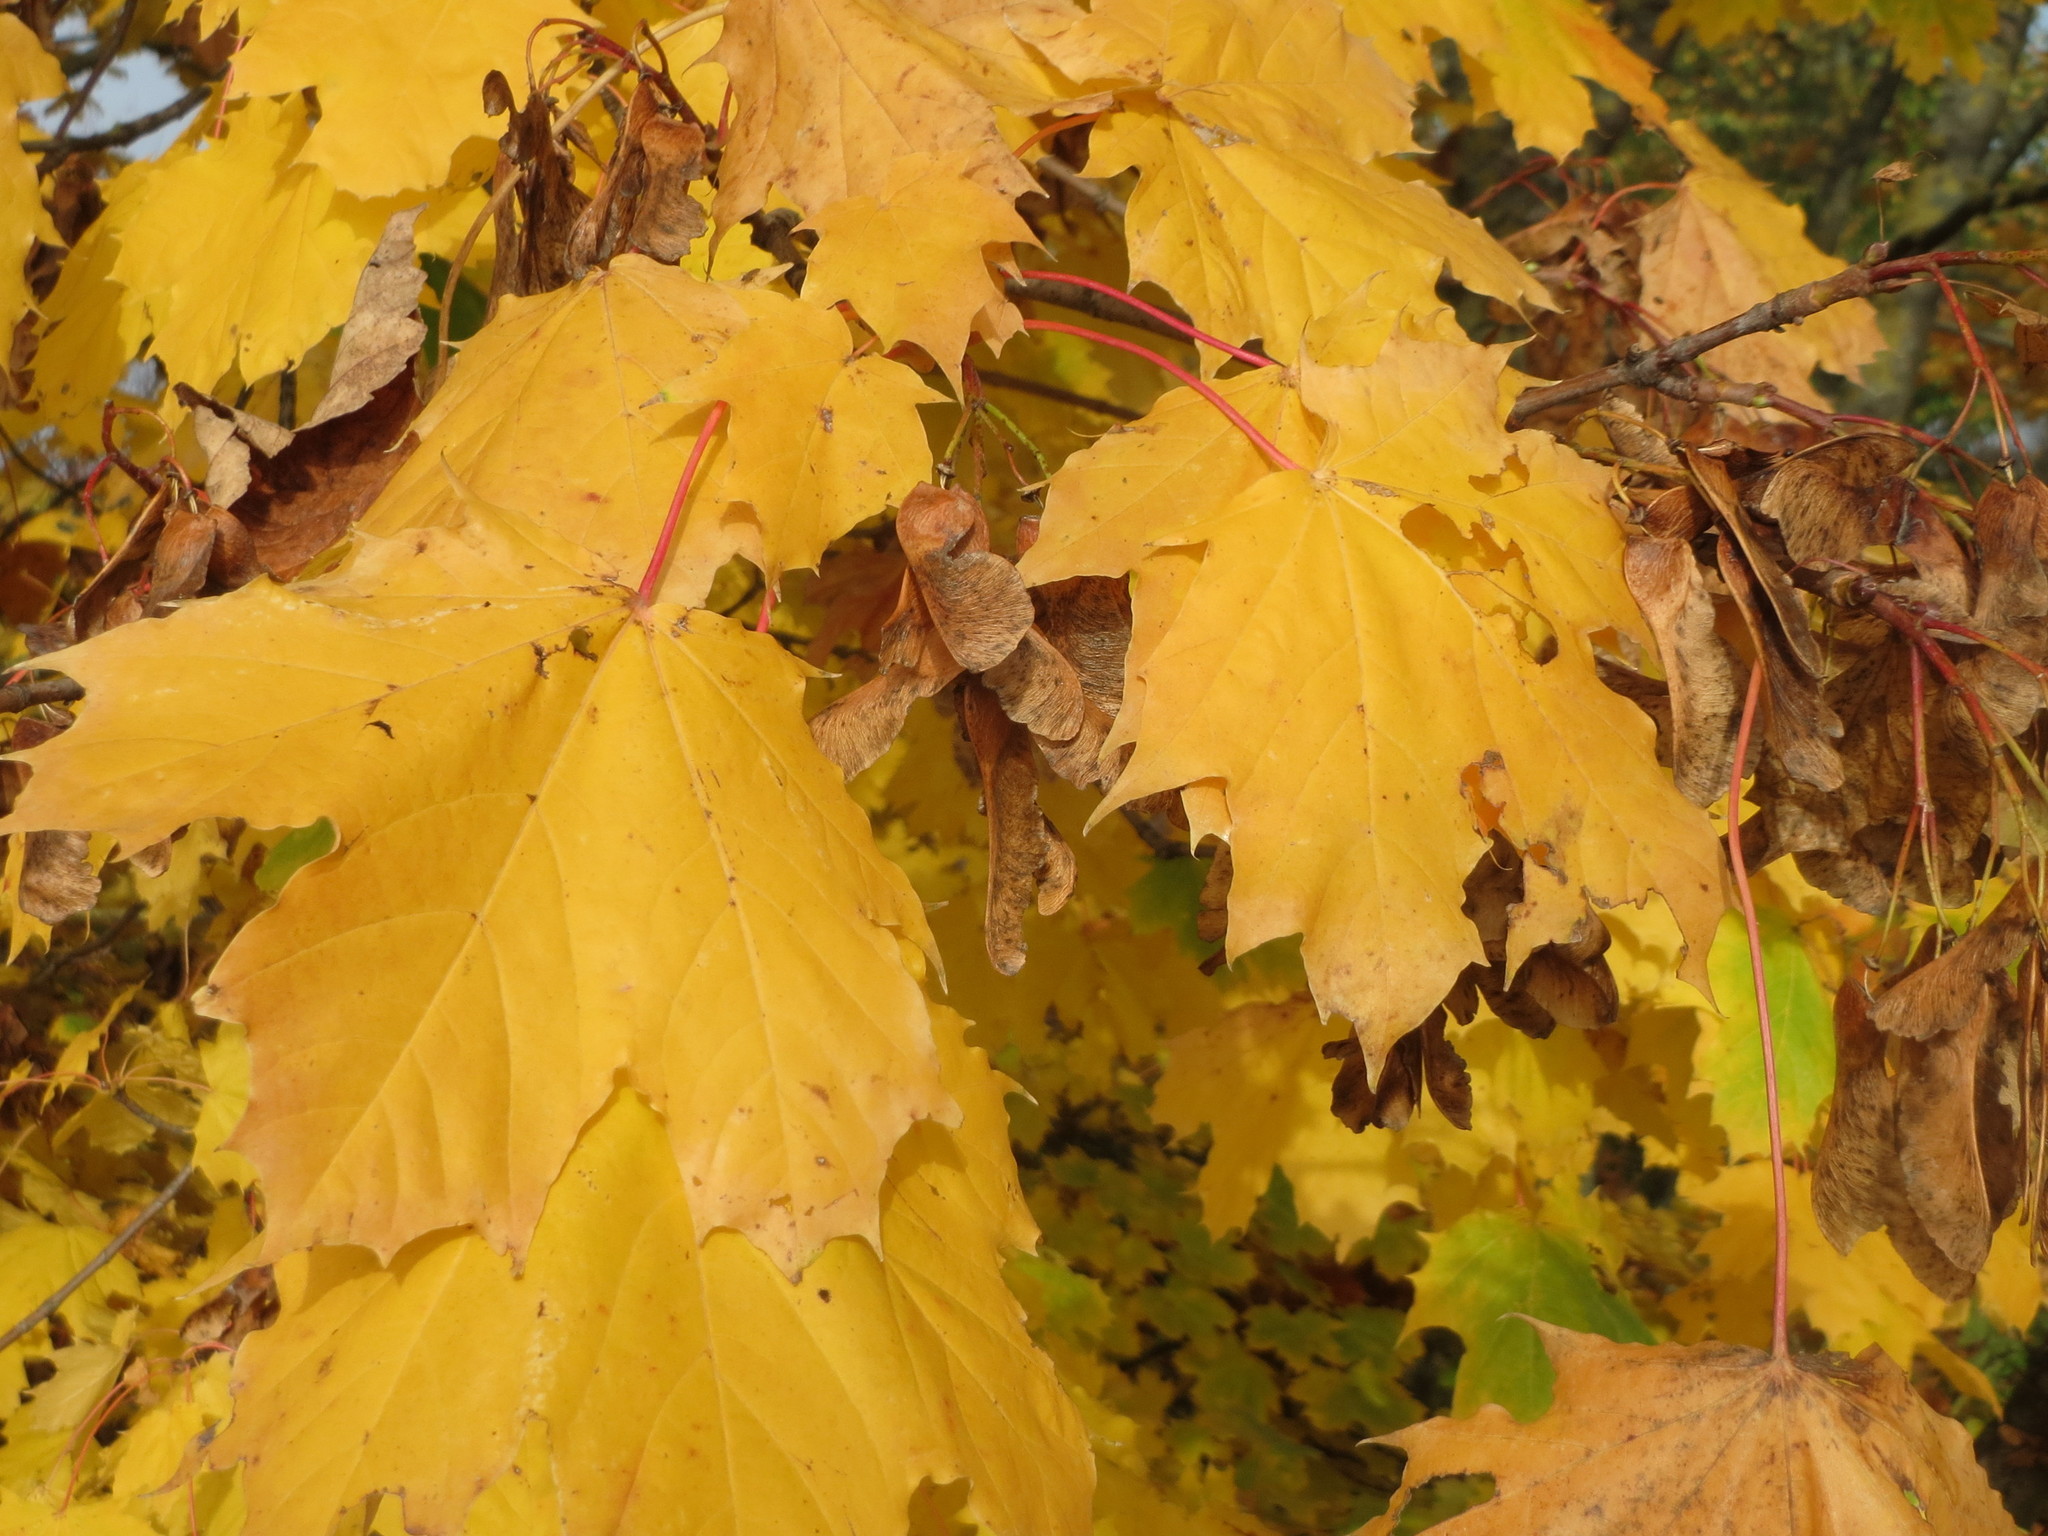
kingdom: Plantae
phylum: Tracheophyta
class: Magnoliopsida
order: Sapindales
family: Sapindaceae
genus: Acer
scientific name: Acer platanoides
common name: Norway maple
